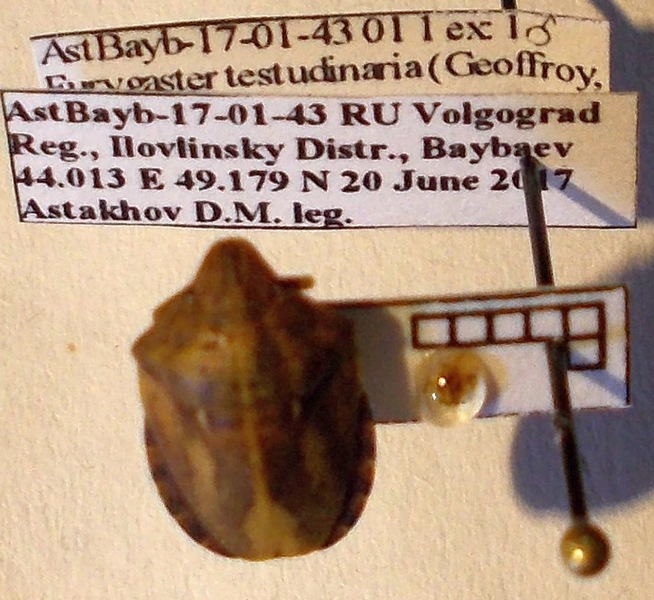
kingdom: Animalia
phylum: Arthropoda
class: Insecta
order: Hemiptera
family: Scutelleridae
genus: Eurygaster
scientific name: Eurygaster testudinaria
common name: Tortoise bug
